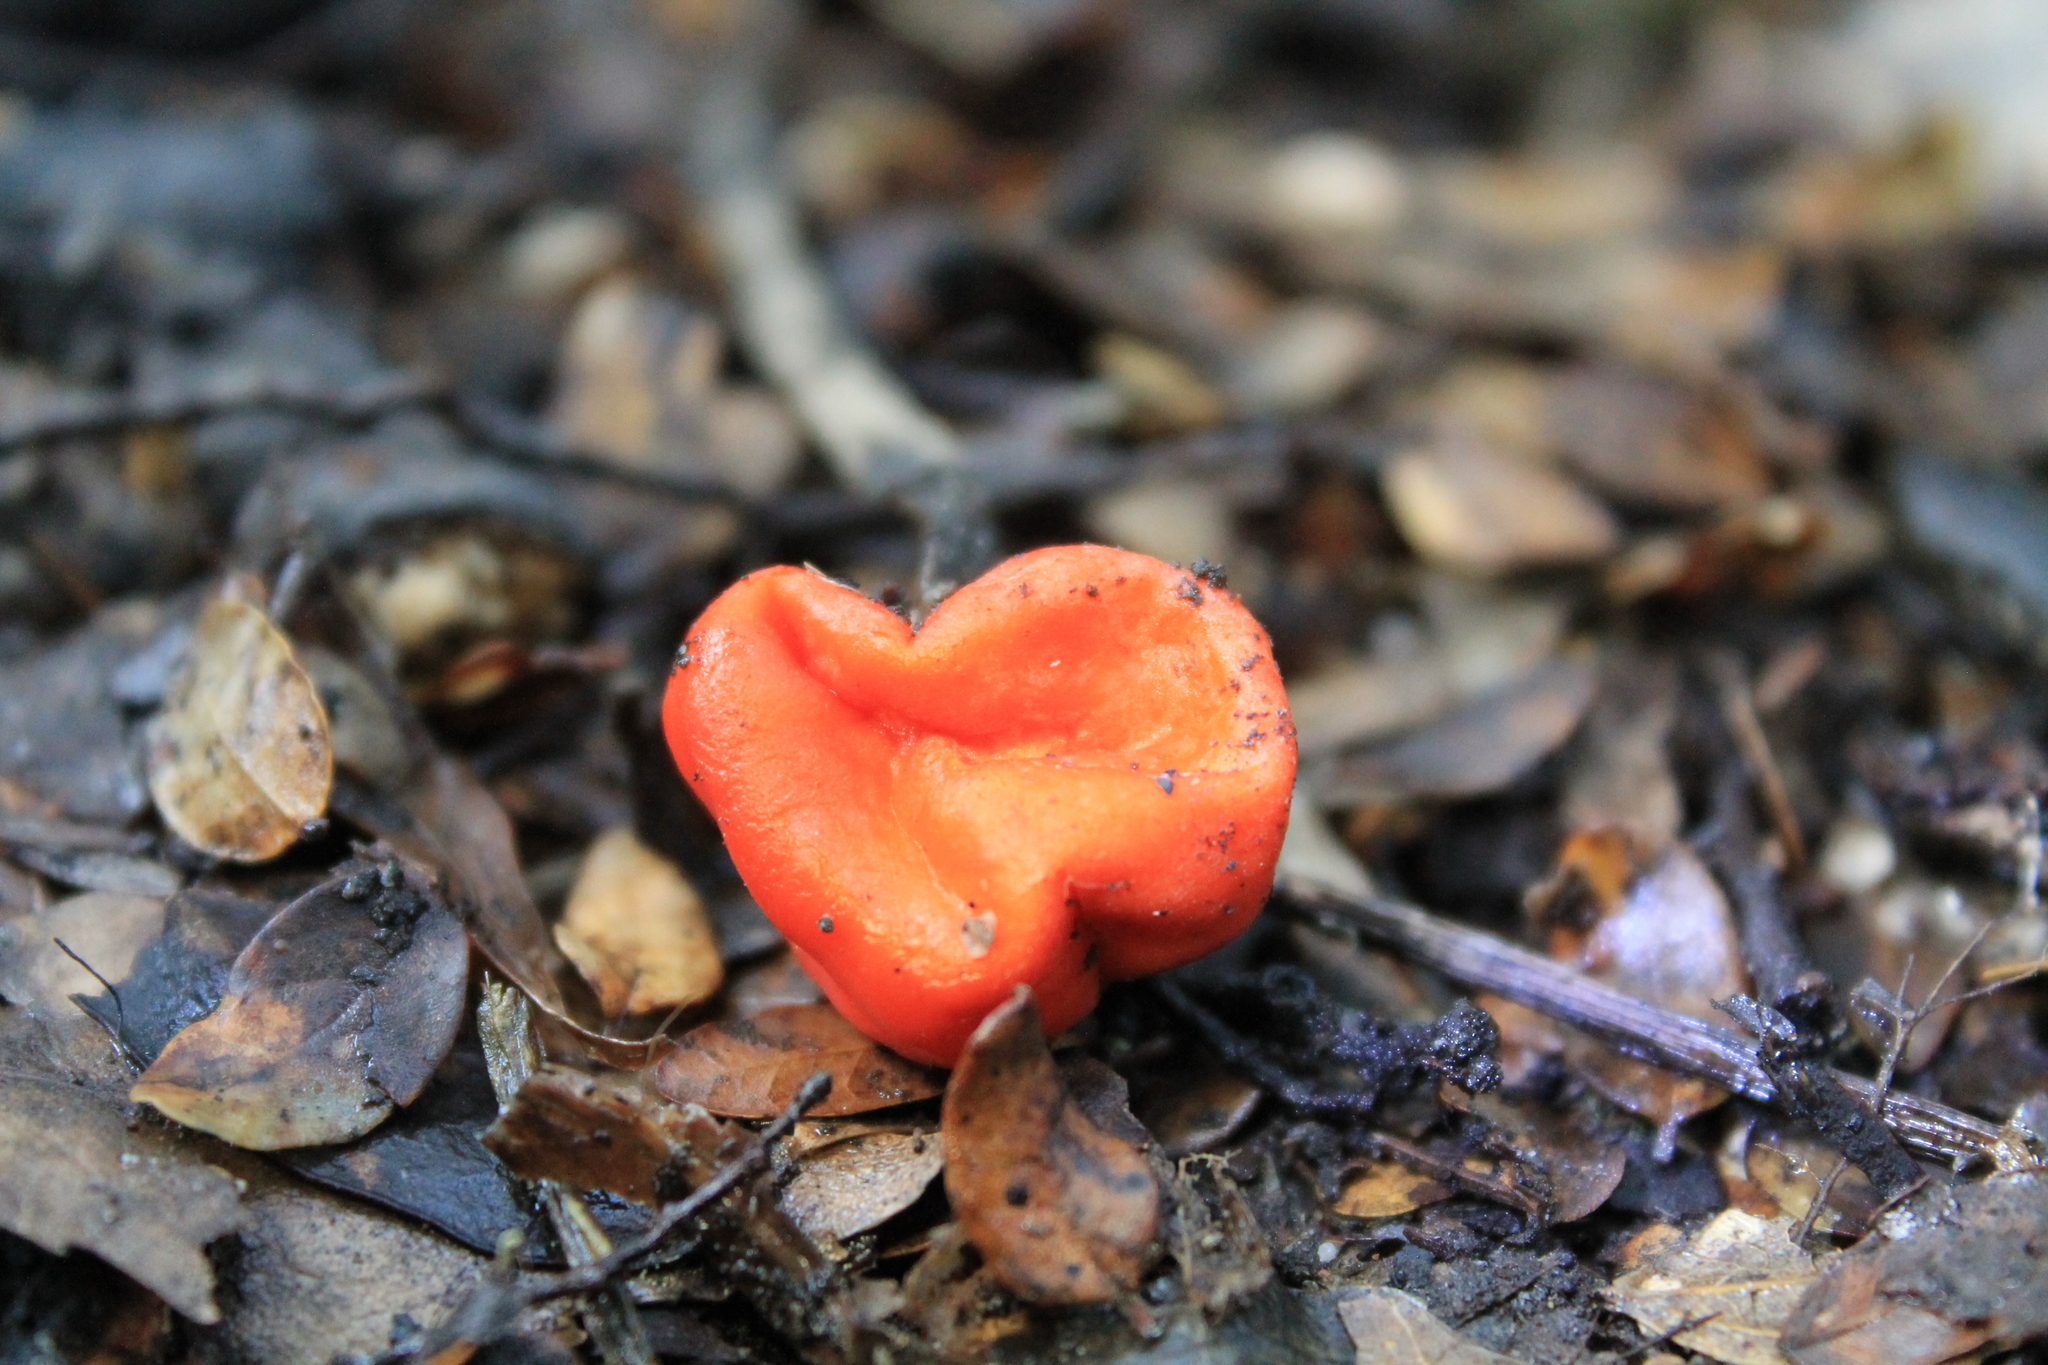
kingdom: Fungi
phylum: Ascomycota
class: Pezizomycetes
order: Pezizales
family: Pyronemataceae
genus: Paurocotylis
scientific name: Paurocotylis pila
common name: Scarlet berry truffle
